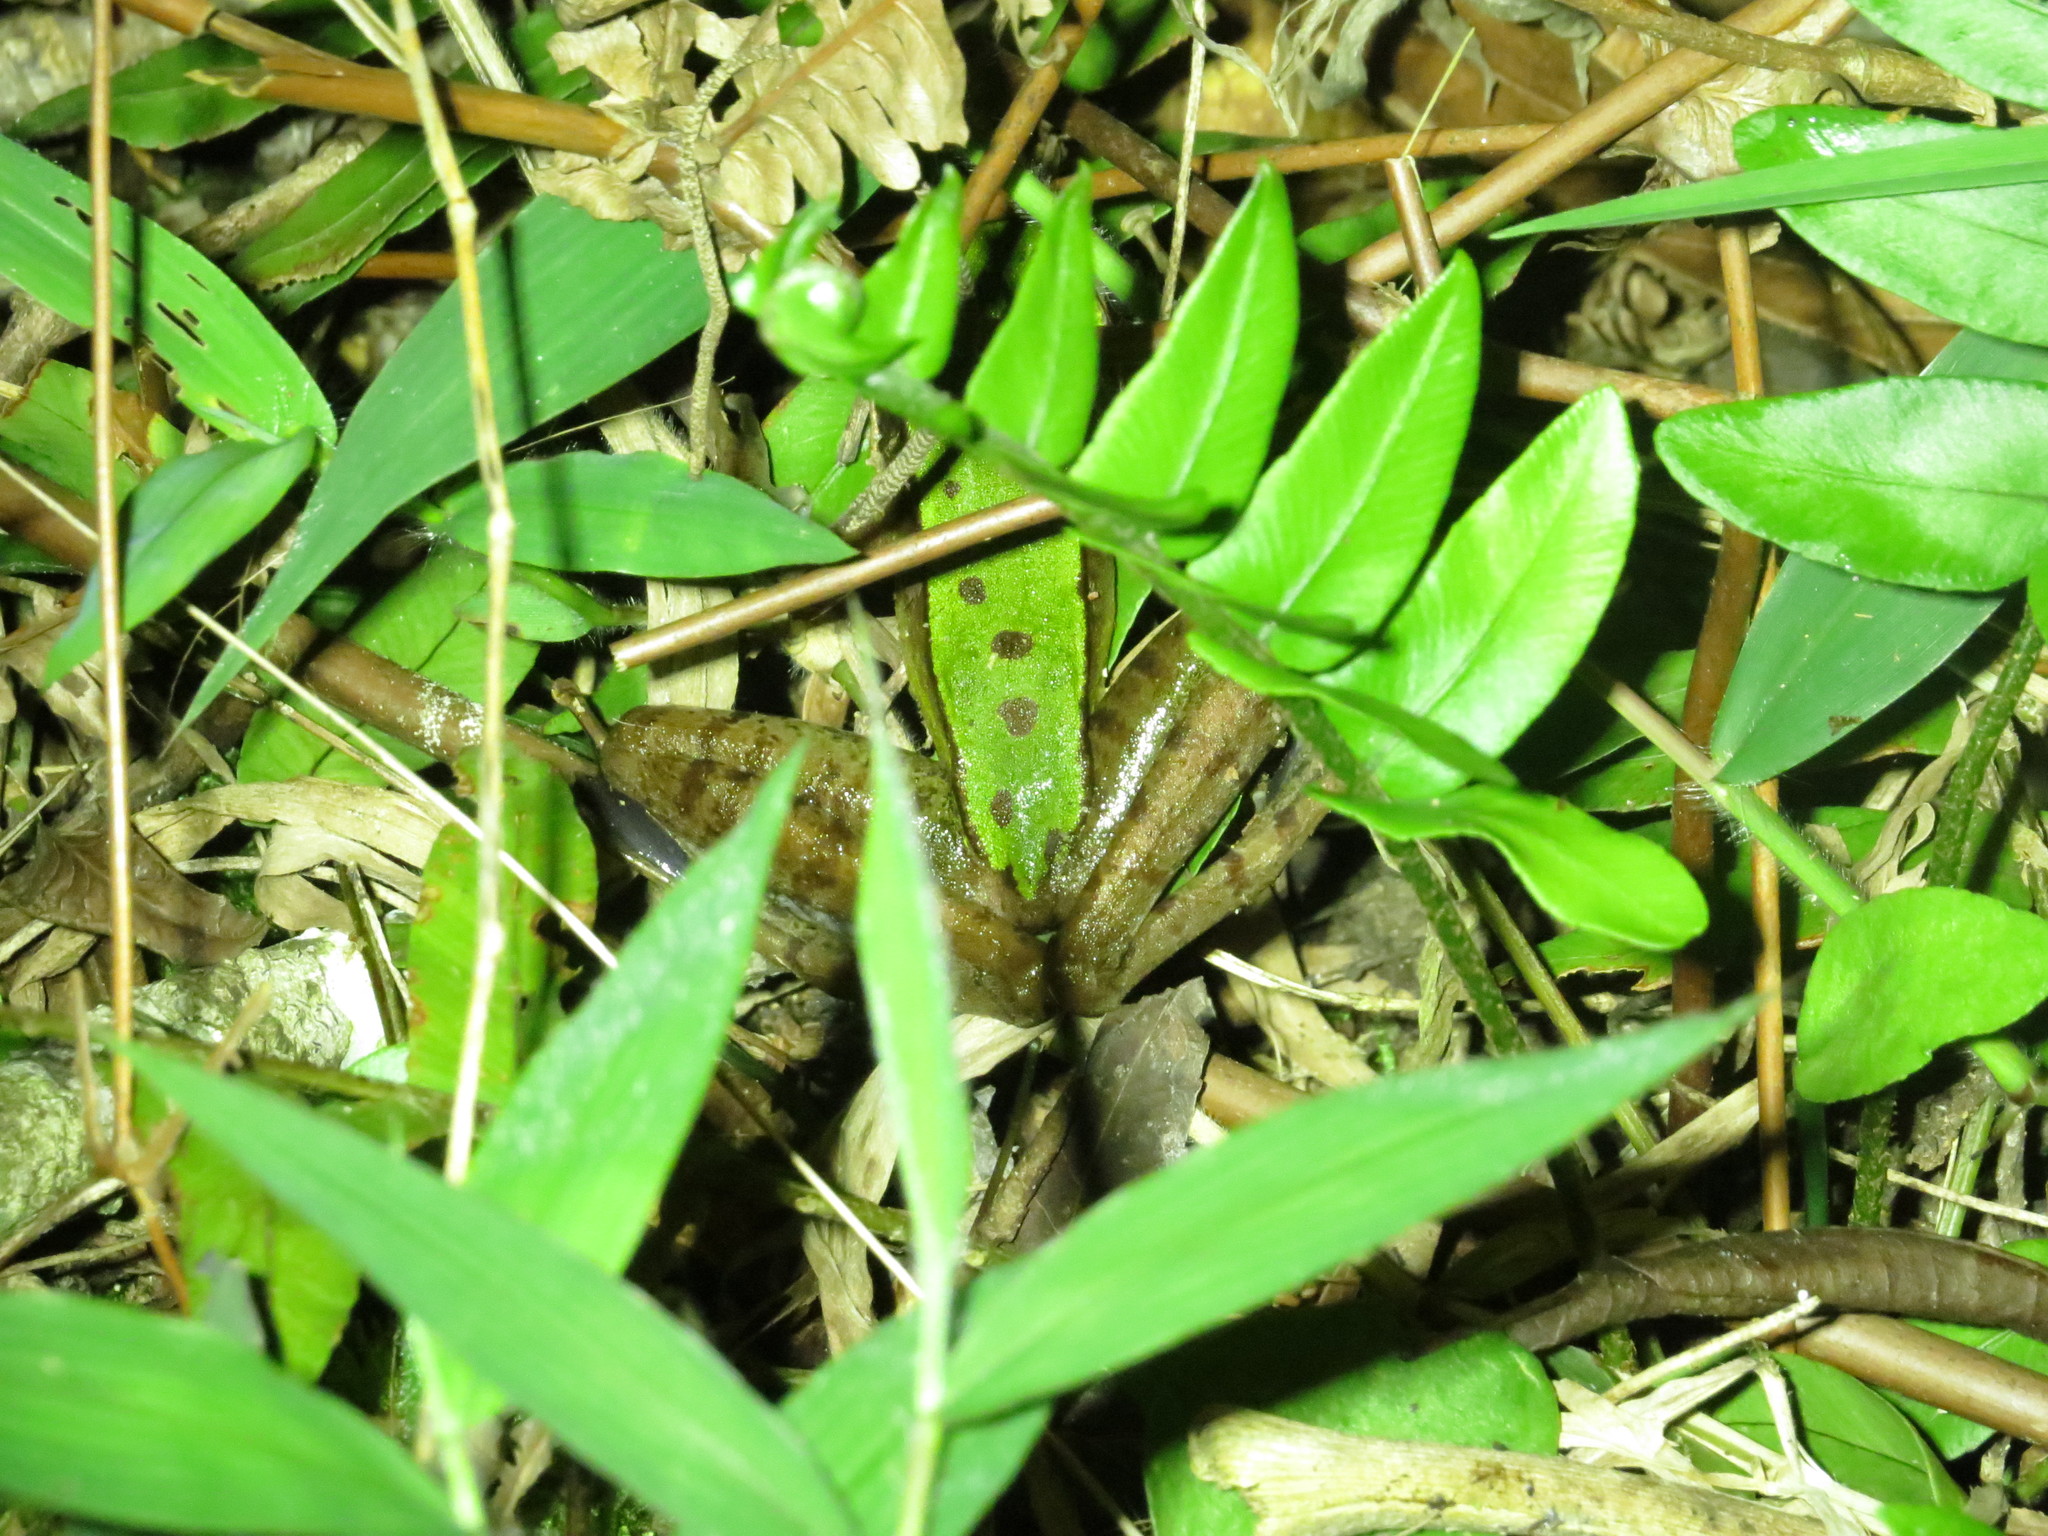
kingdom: Animalia
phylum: Chordata
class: Amphibia
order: Anura
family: Ranidae
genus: Odorrana
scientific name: Odorrana hosii
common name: Green tree frog
